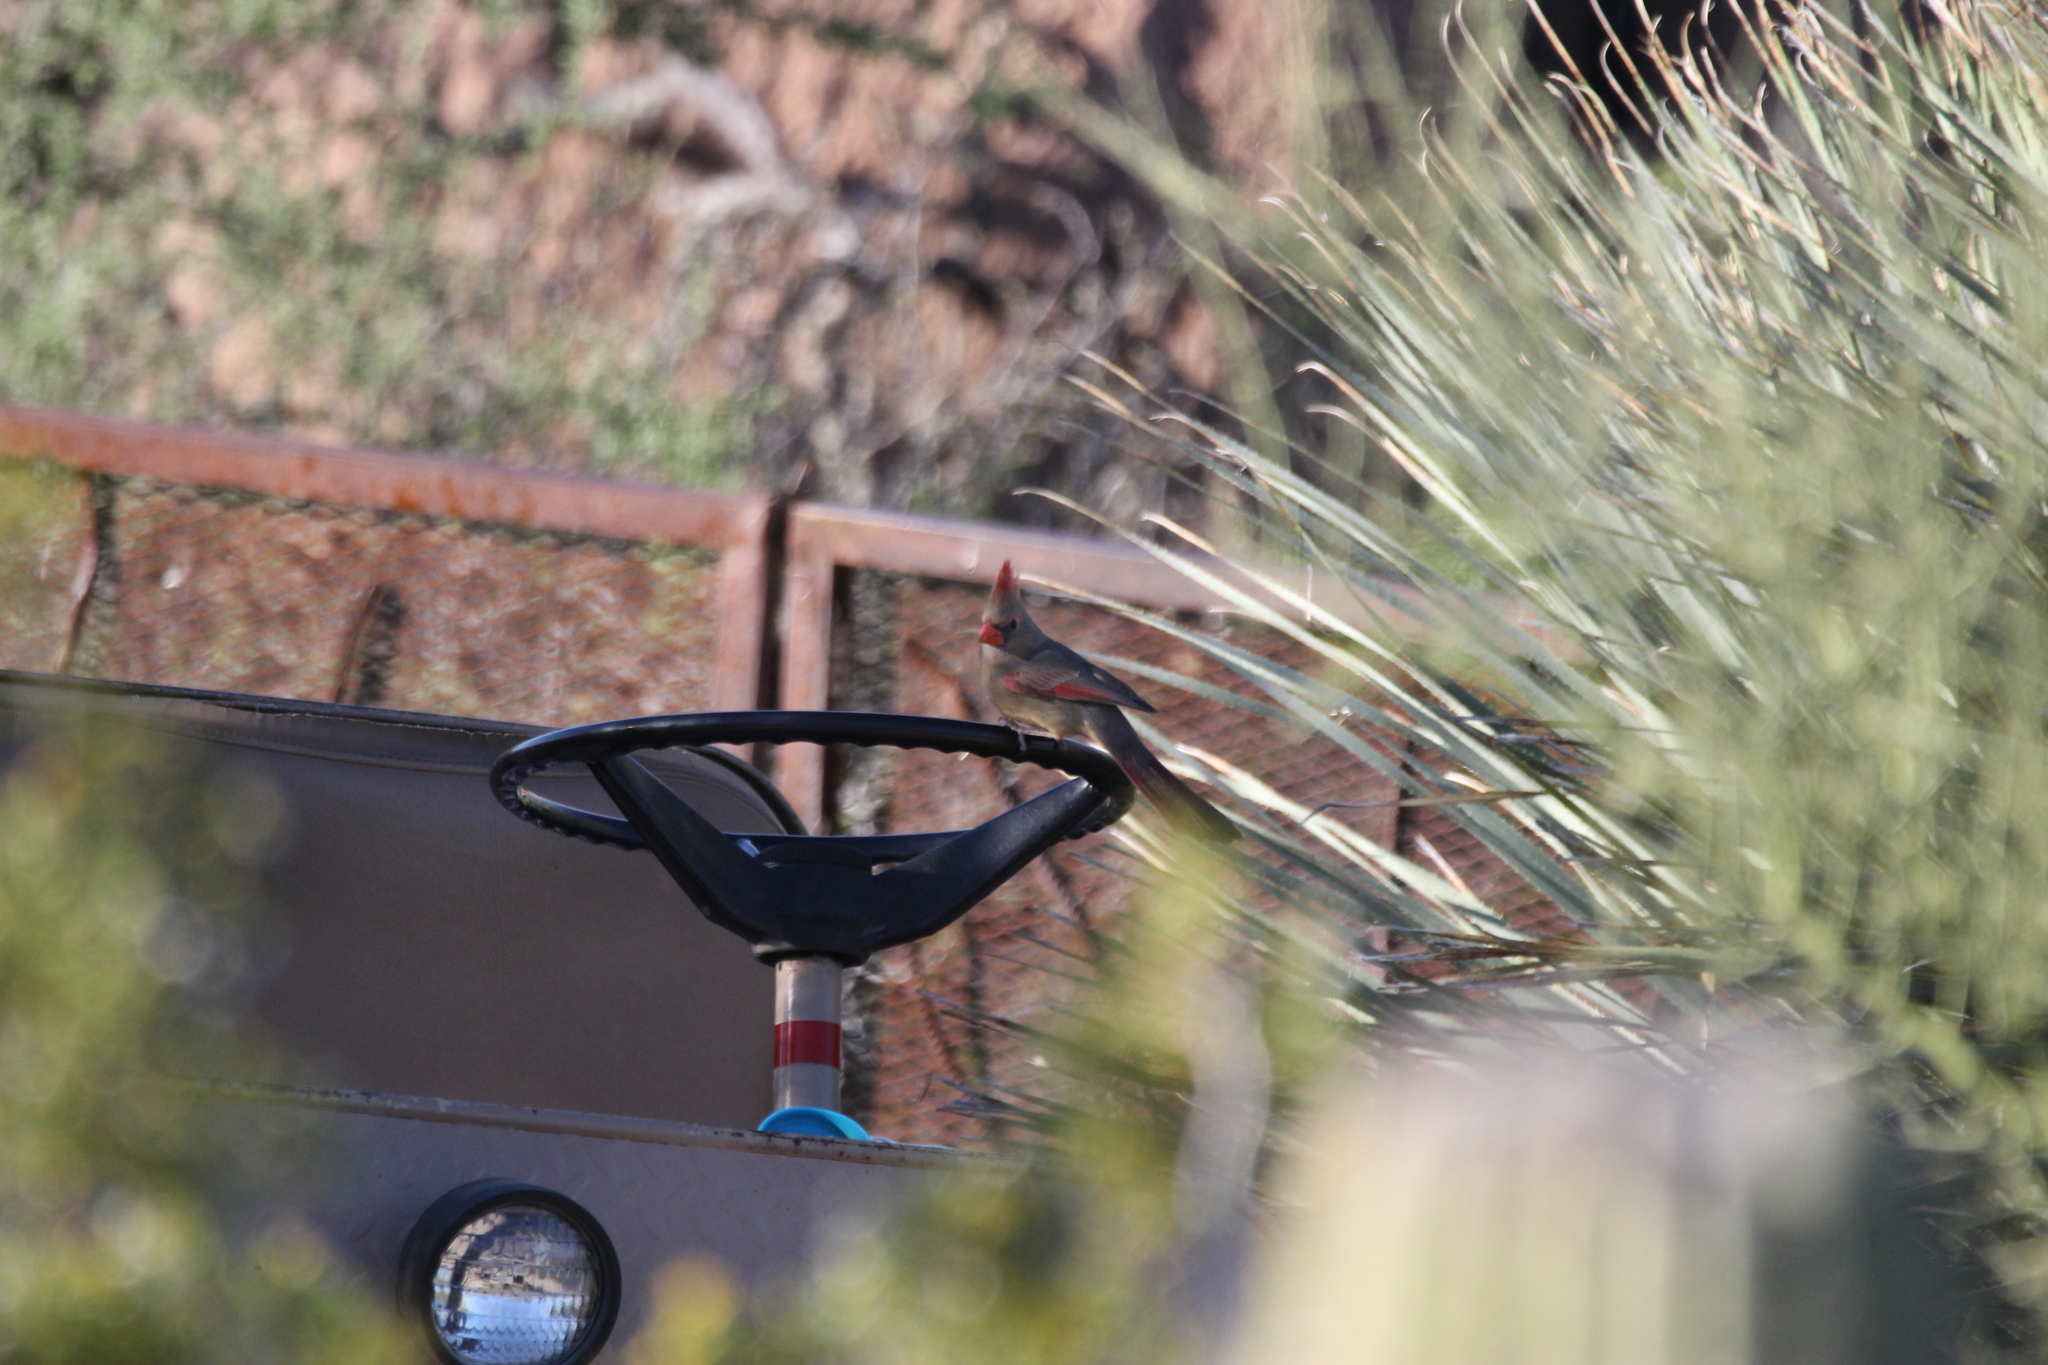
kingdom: Animalia
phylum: Chordata
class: Aves
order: Passeriformes
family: Cardinalidae
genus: Cardinalis
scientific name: Cardinalis cardinalis
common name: Northern cardinal
